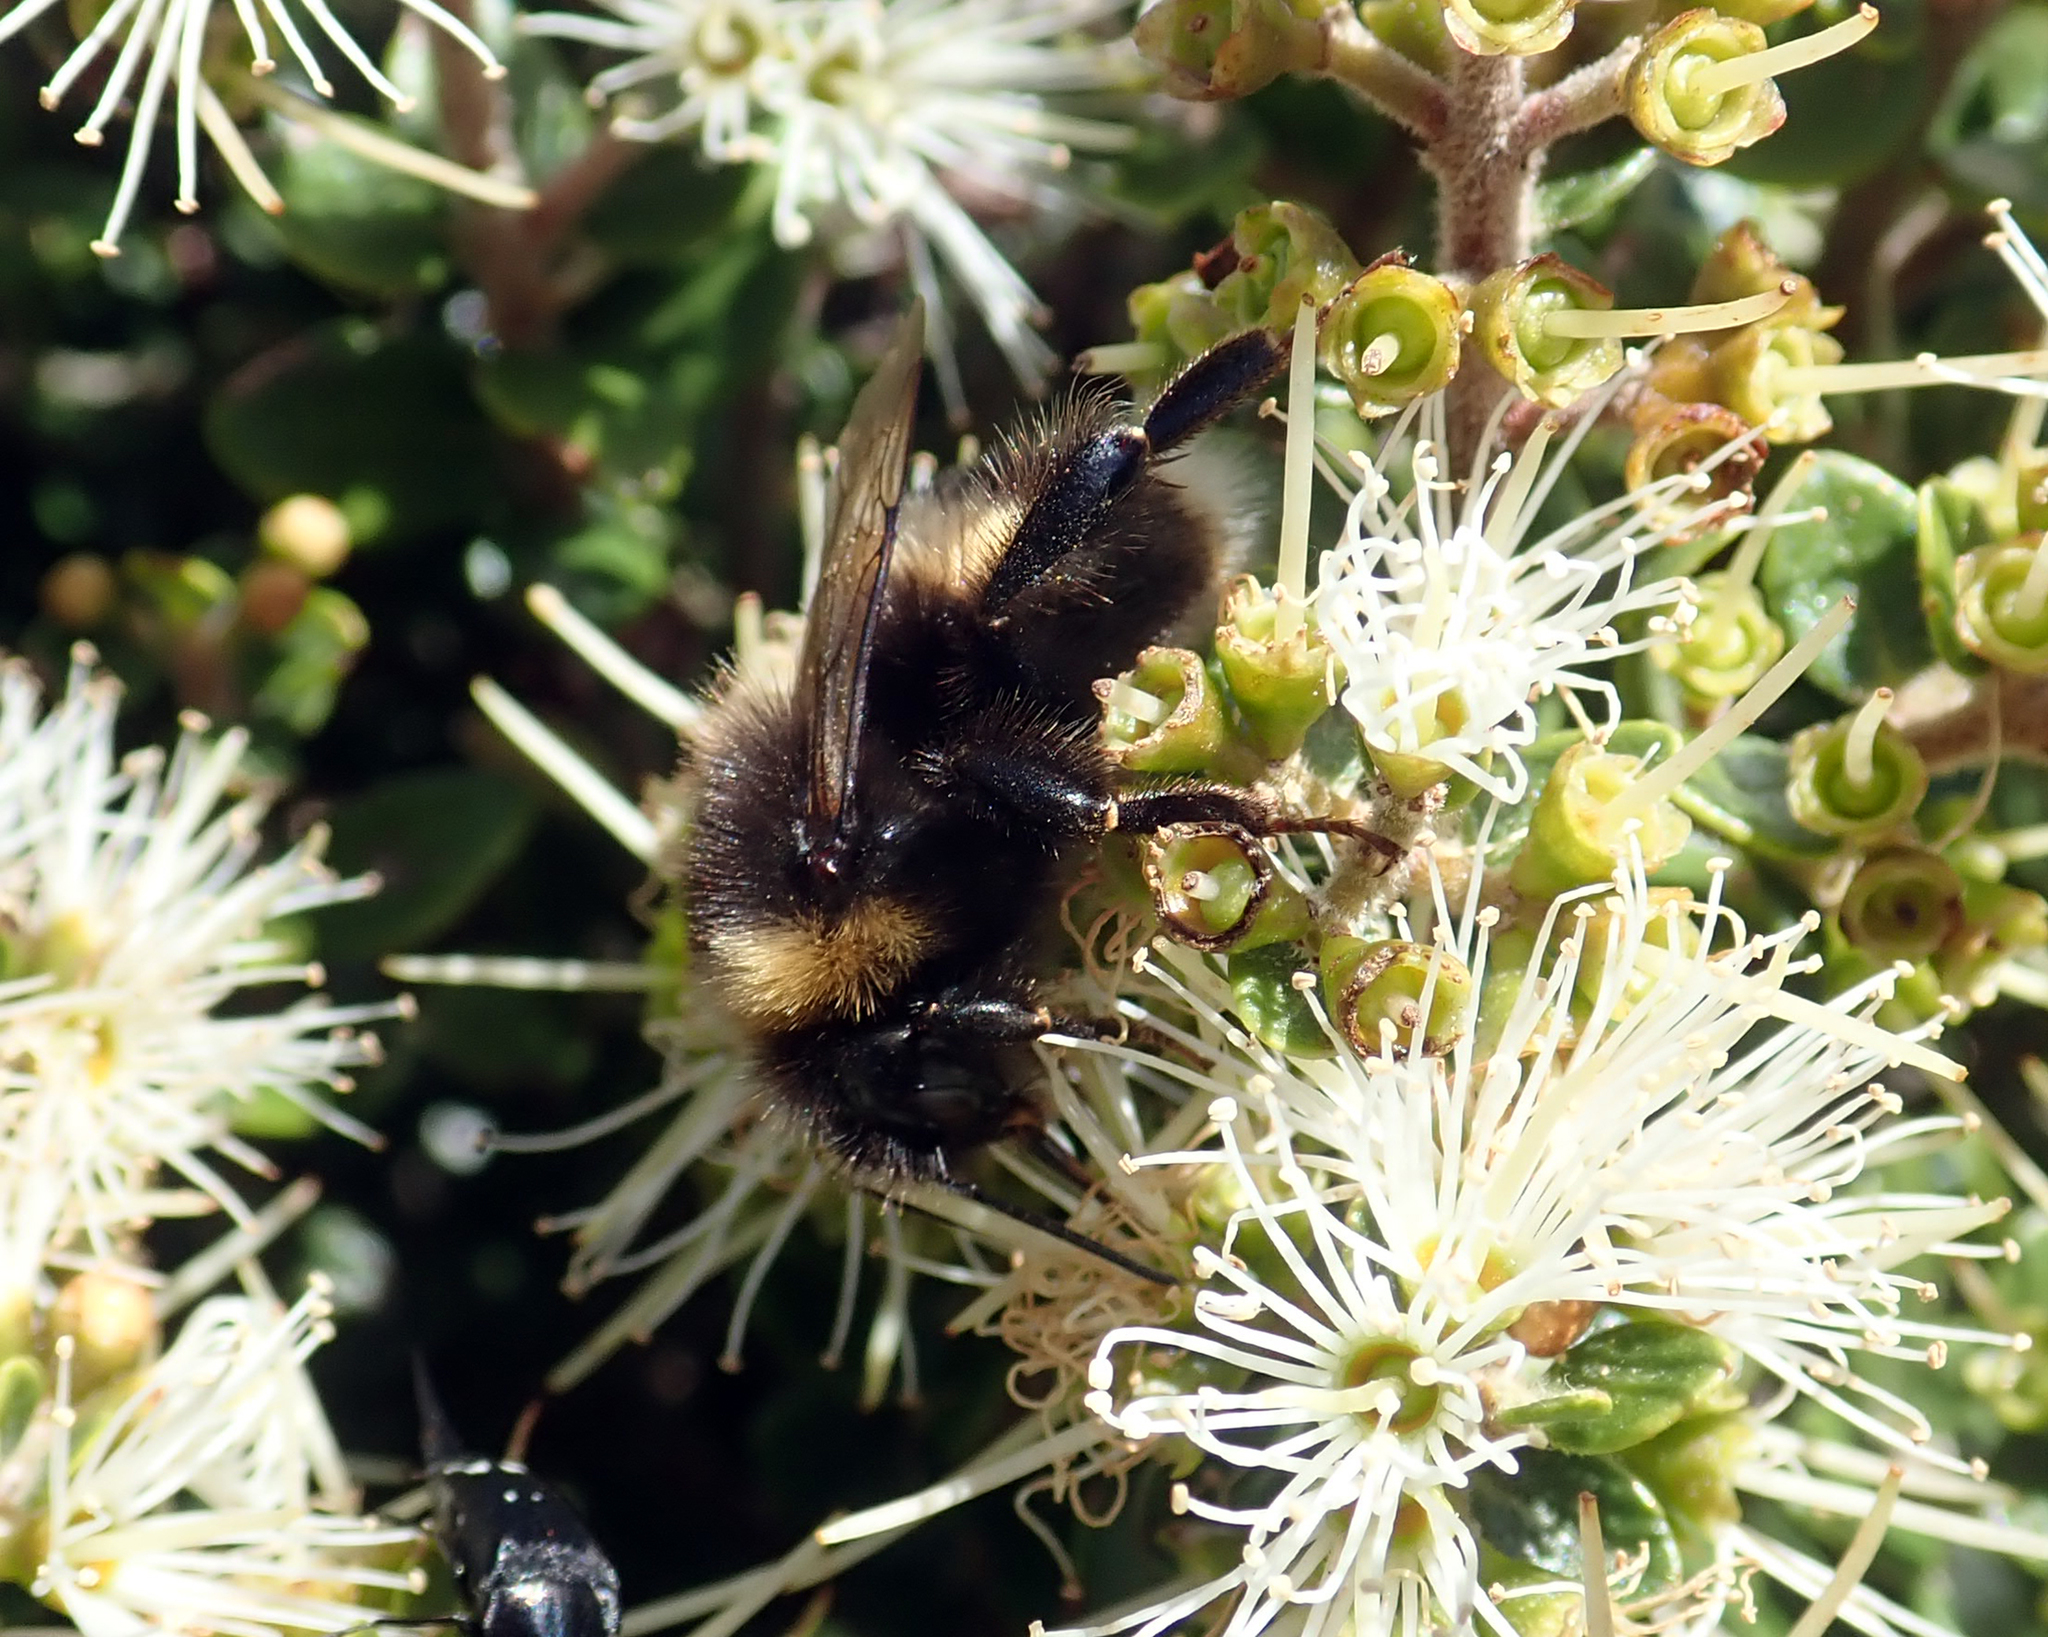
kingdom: Animalia
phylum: Arthropoda
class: Insecta
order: Hymenoptera
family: Apidae
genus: Bombus
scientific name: Bombus terrestris
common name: Buff-tailed bumblebee
